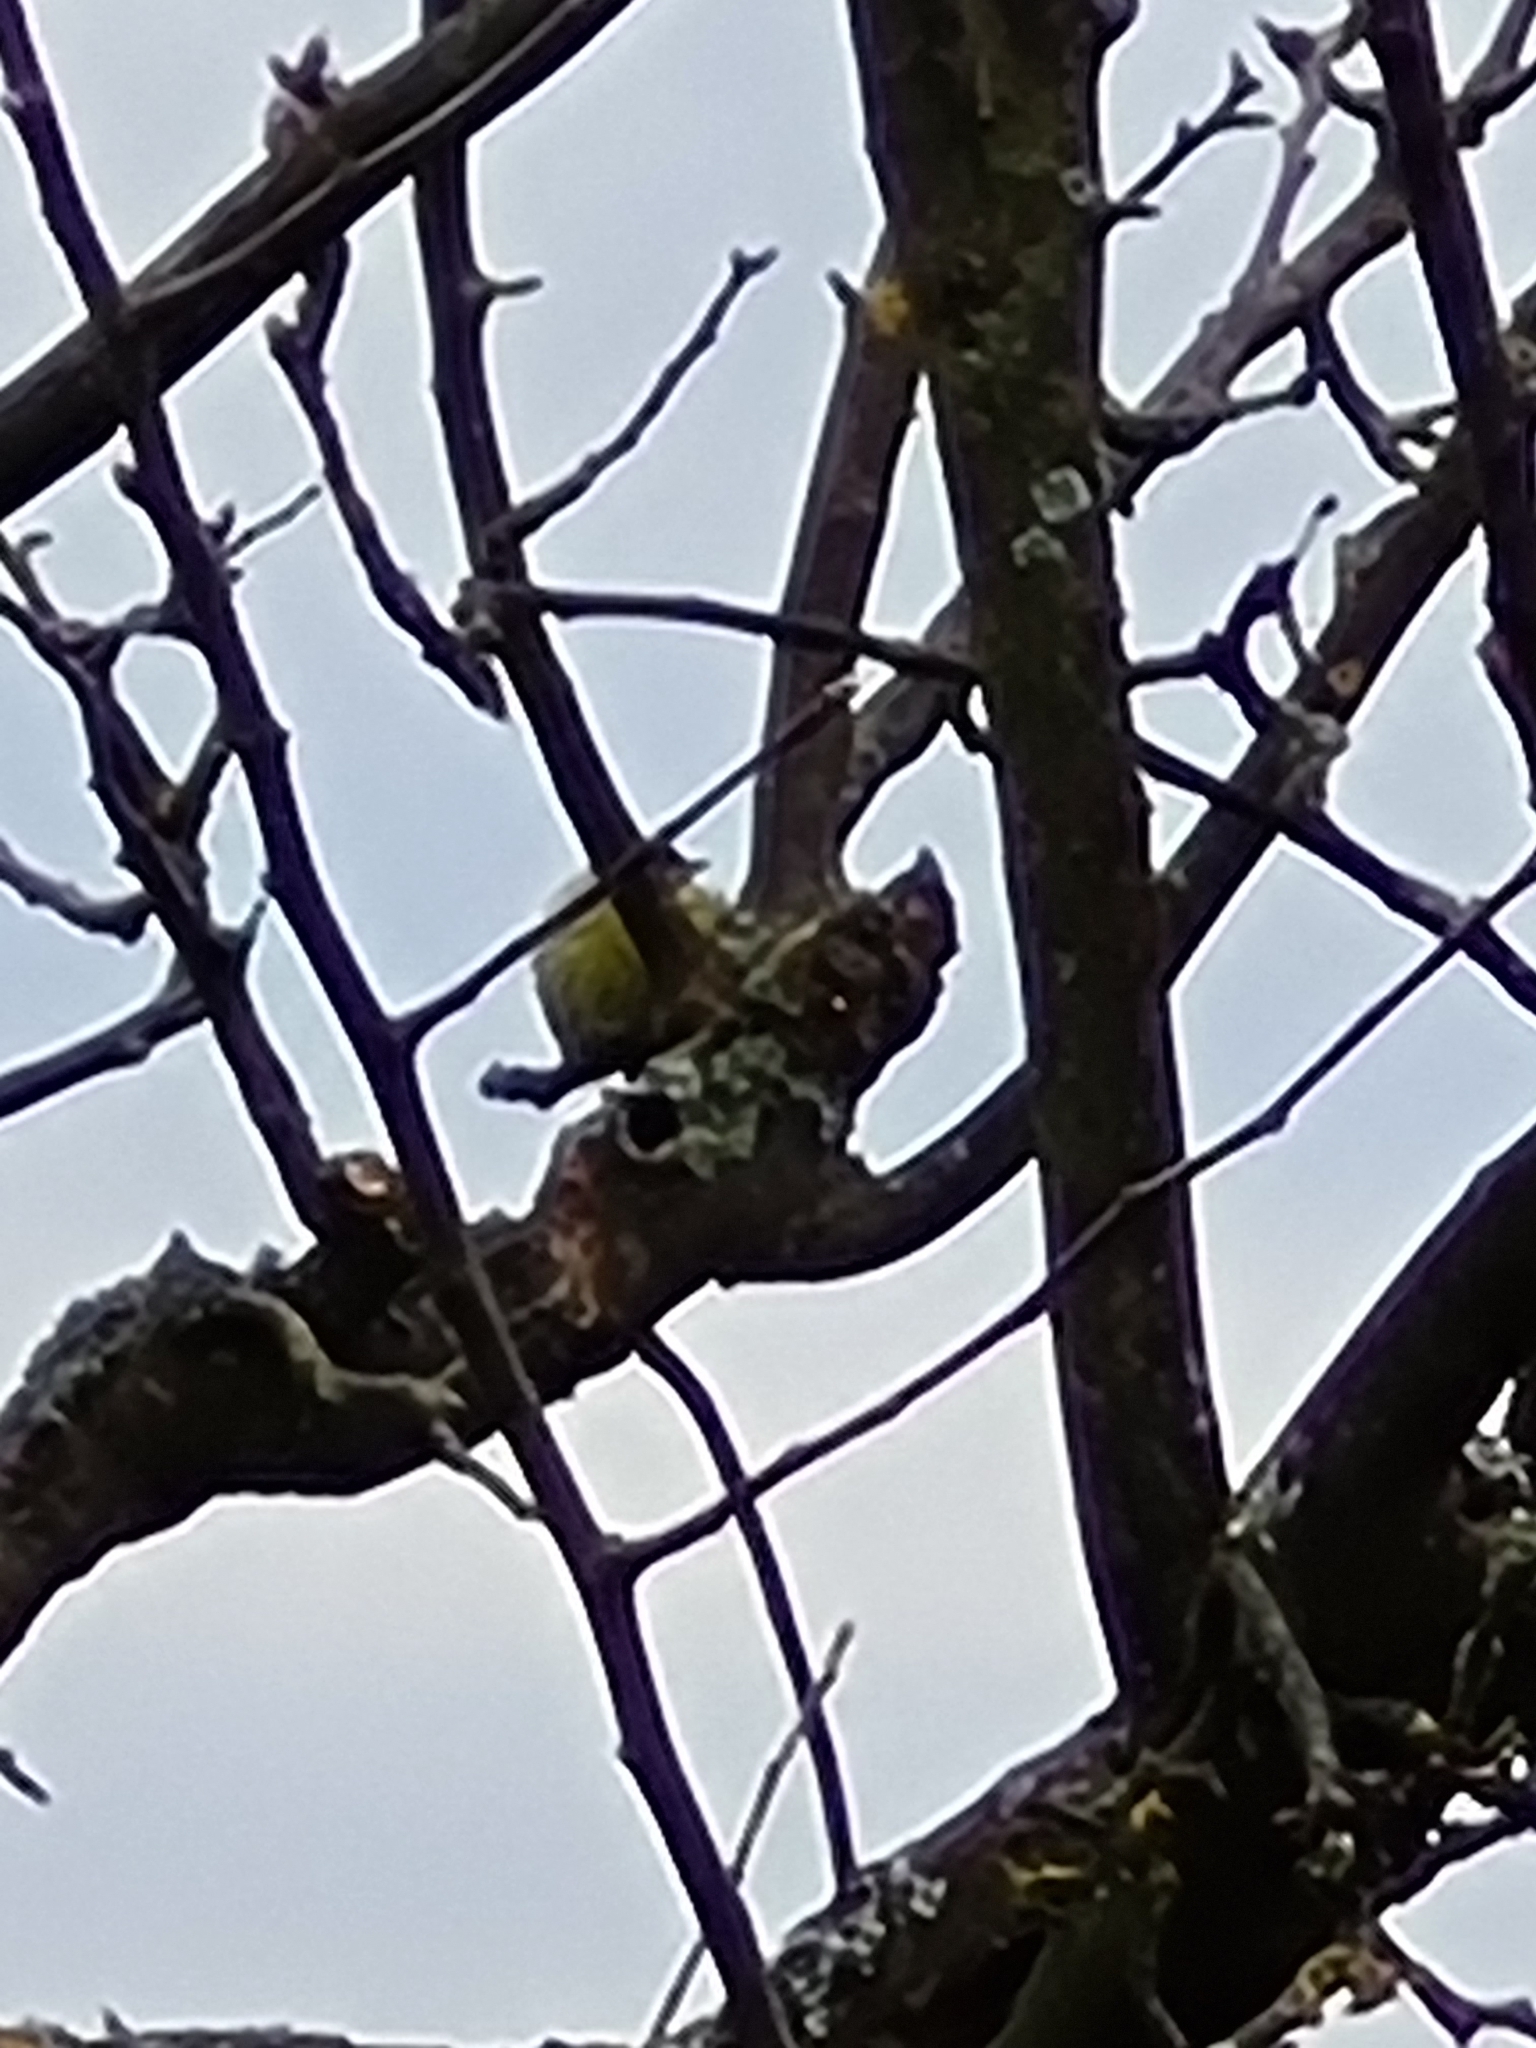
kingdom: Animalia
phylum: Chordata
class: Aves
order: Passeriformes
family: Fringillidae
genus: Spinus
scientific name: Spinus spinus
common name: Eurasian siskin
